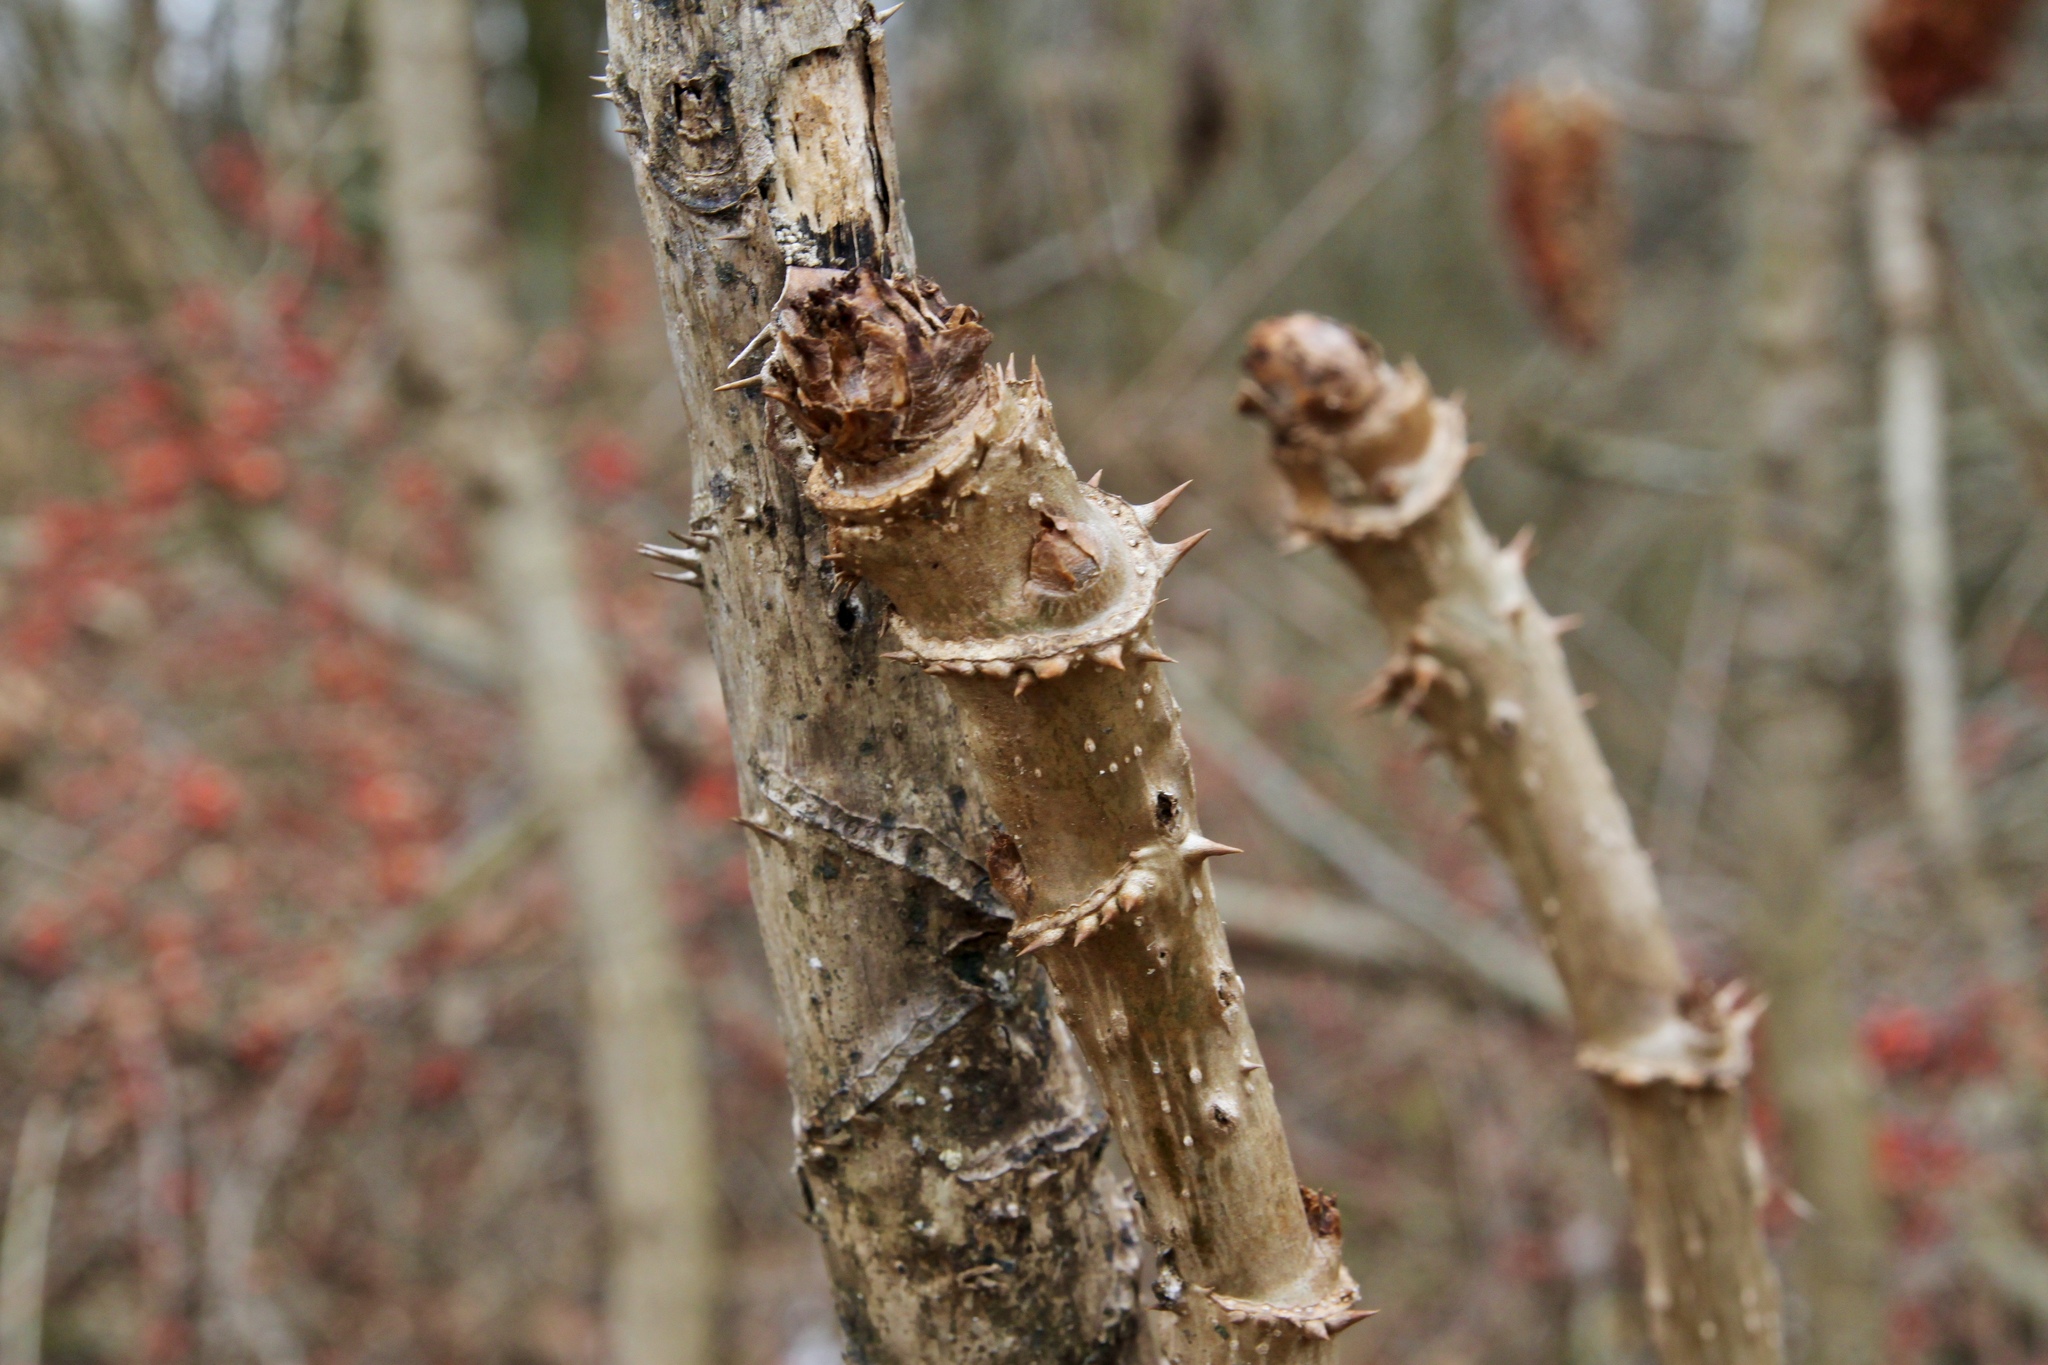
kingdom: Plantae
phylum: Tracheophyta
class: Magnoliopsida
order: Apiales
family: Araliaceae
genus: Aralia
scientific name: Aralia spinosa
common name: Hercules'-club
